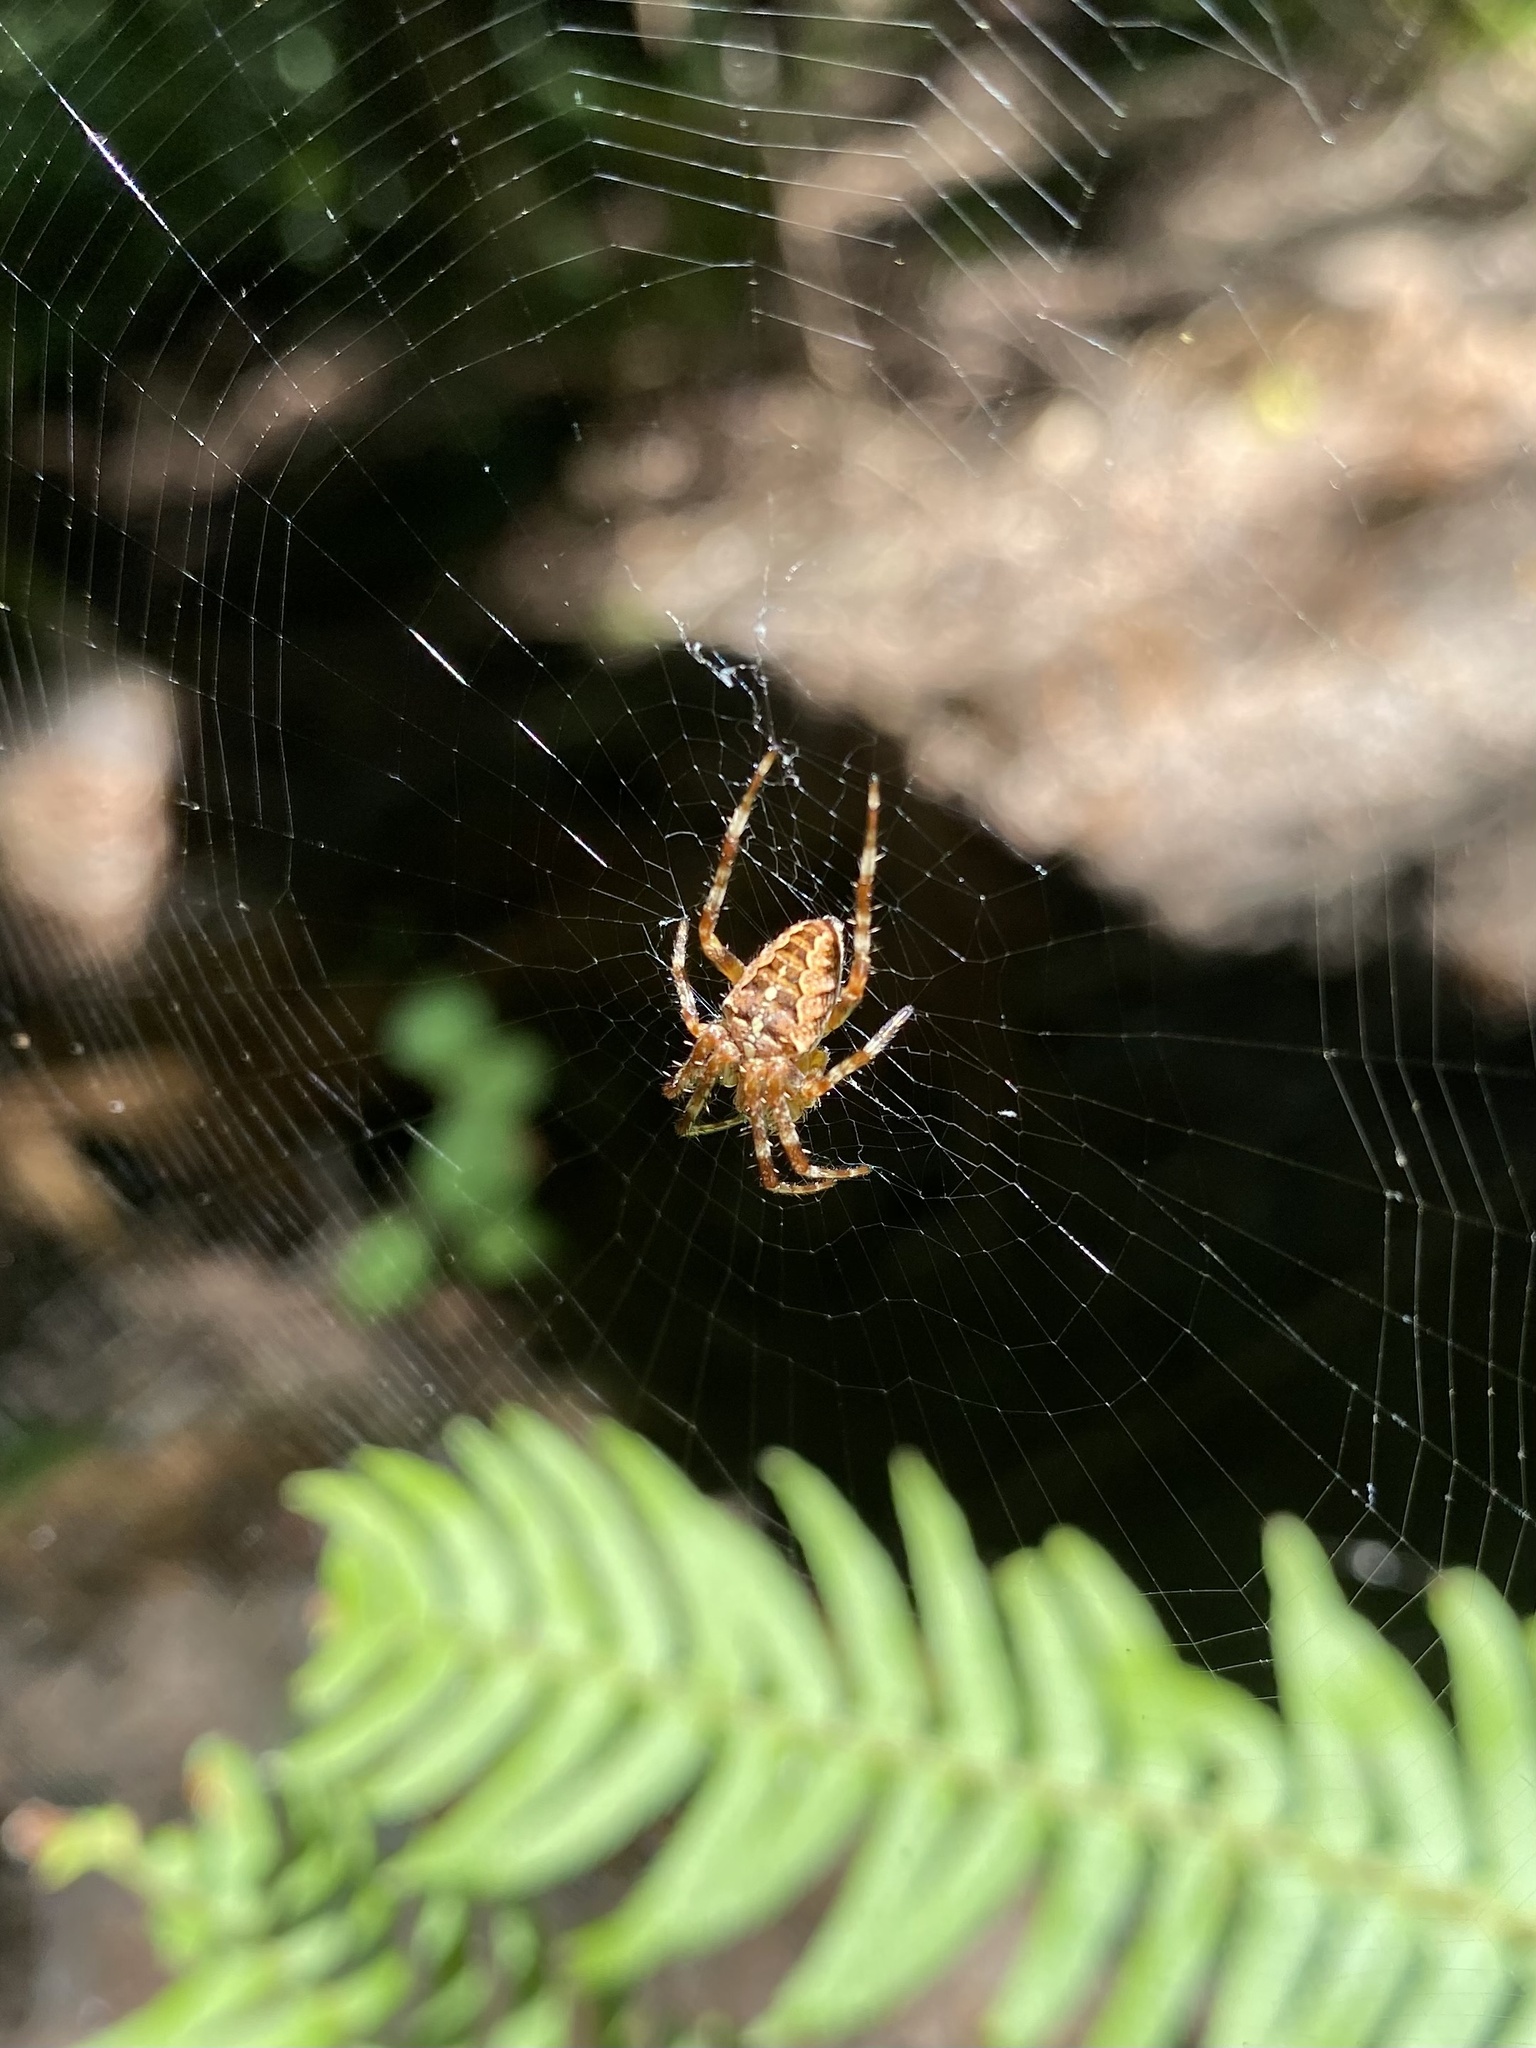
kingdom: Animalia
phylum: Arthropoda
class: Arachnida
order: Araneae
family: Araneidae
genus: Araneus
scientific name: Araneus diadematus
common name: Cross orbweaver
